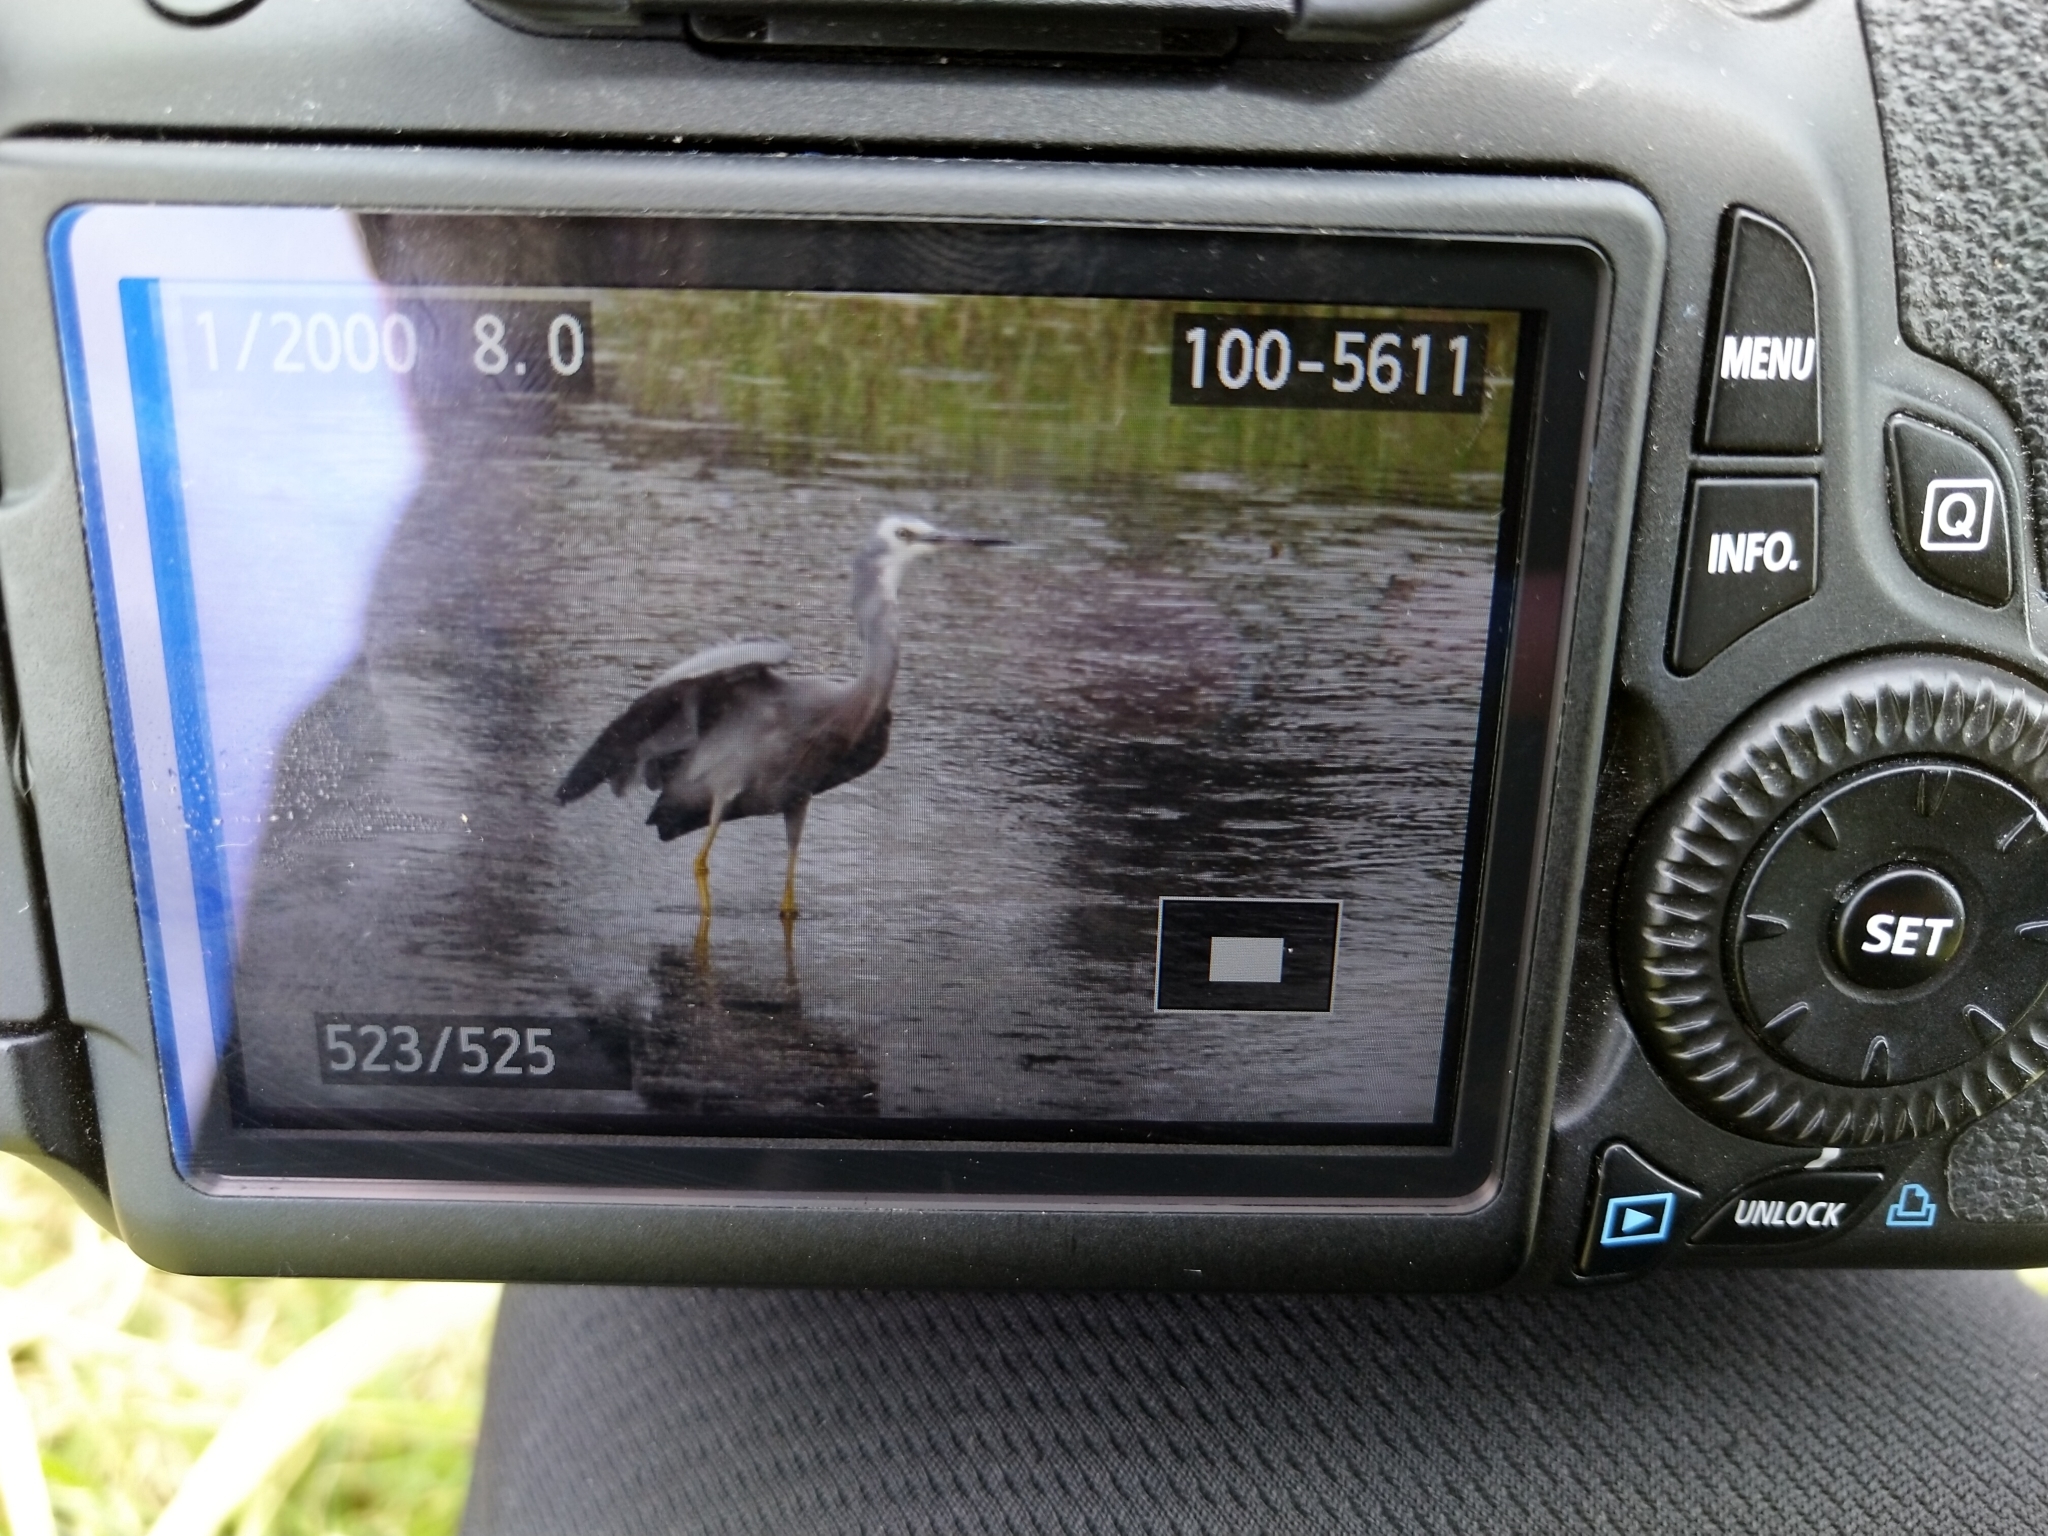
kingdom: Animalia
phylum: Chordata
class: Aves
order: Pelecaniformes
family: Ardeidae
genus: Egretta
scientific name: Egretta novaehollandiae
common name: White-faced heron
